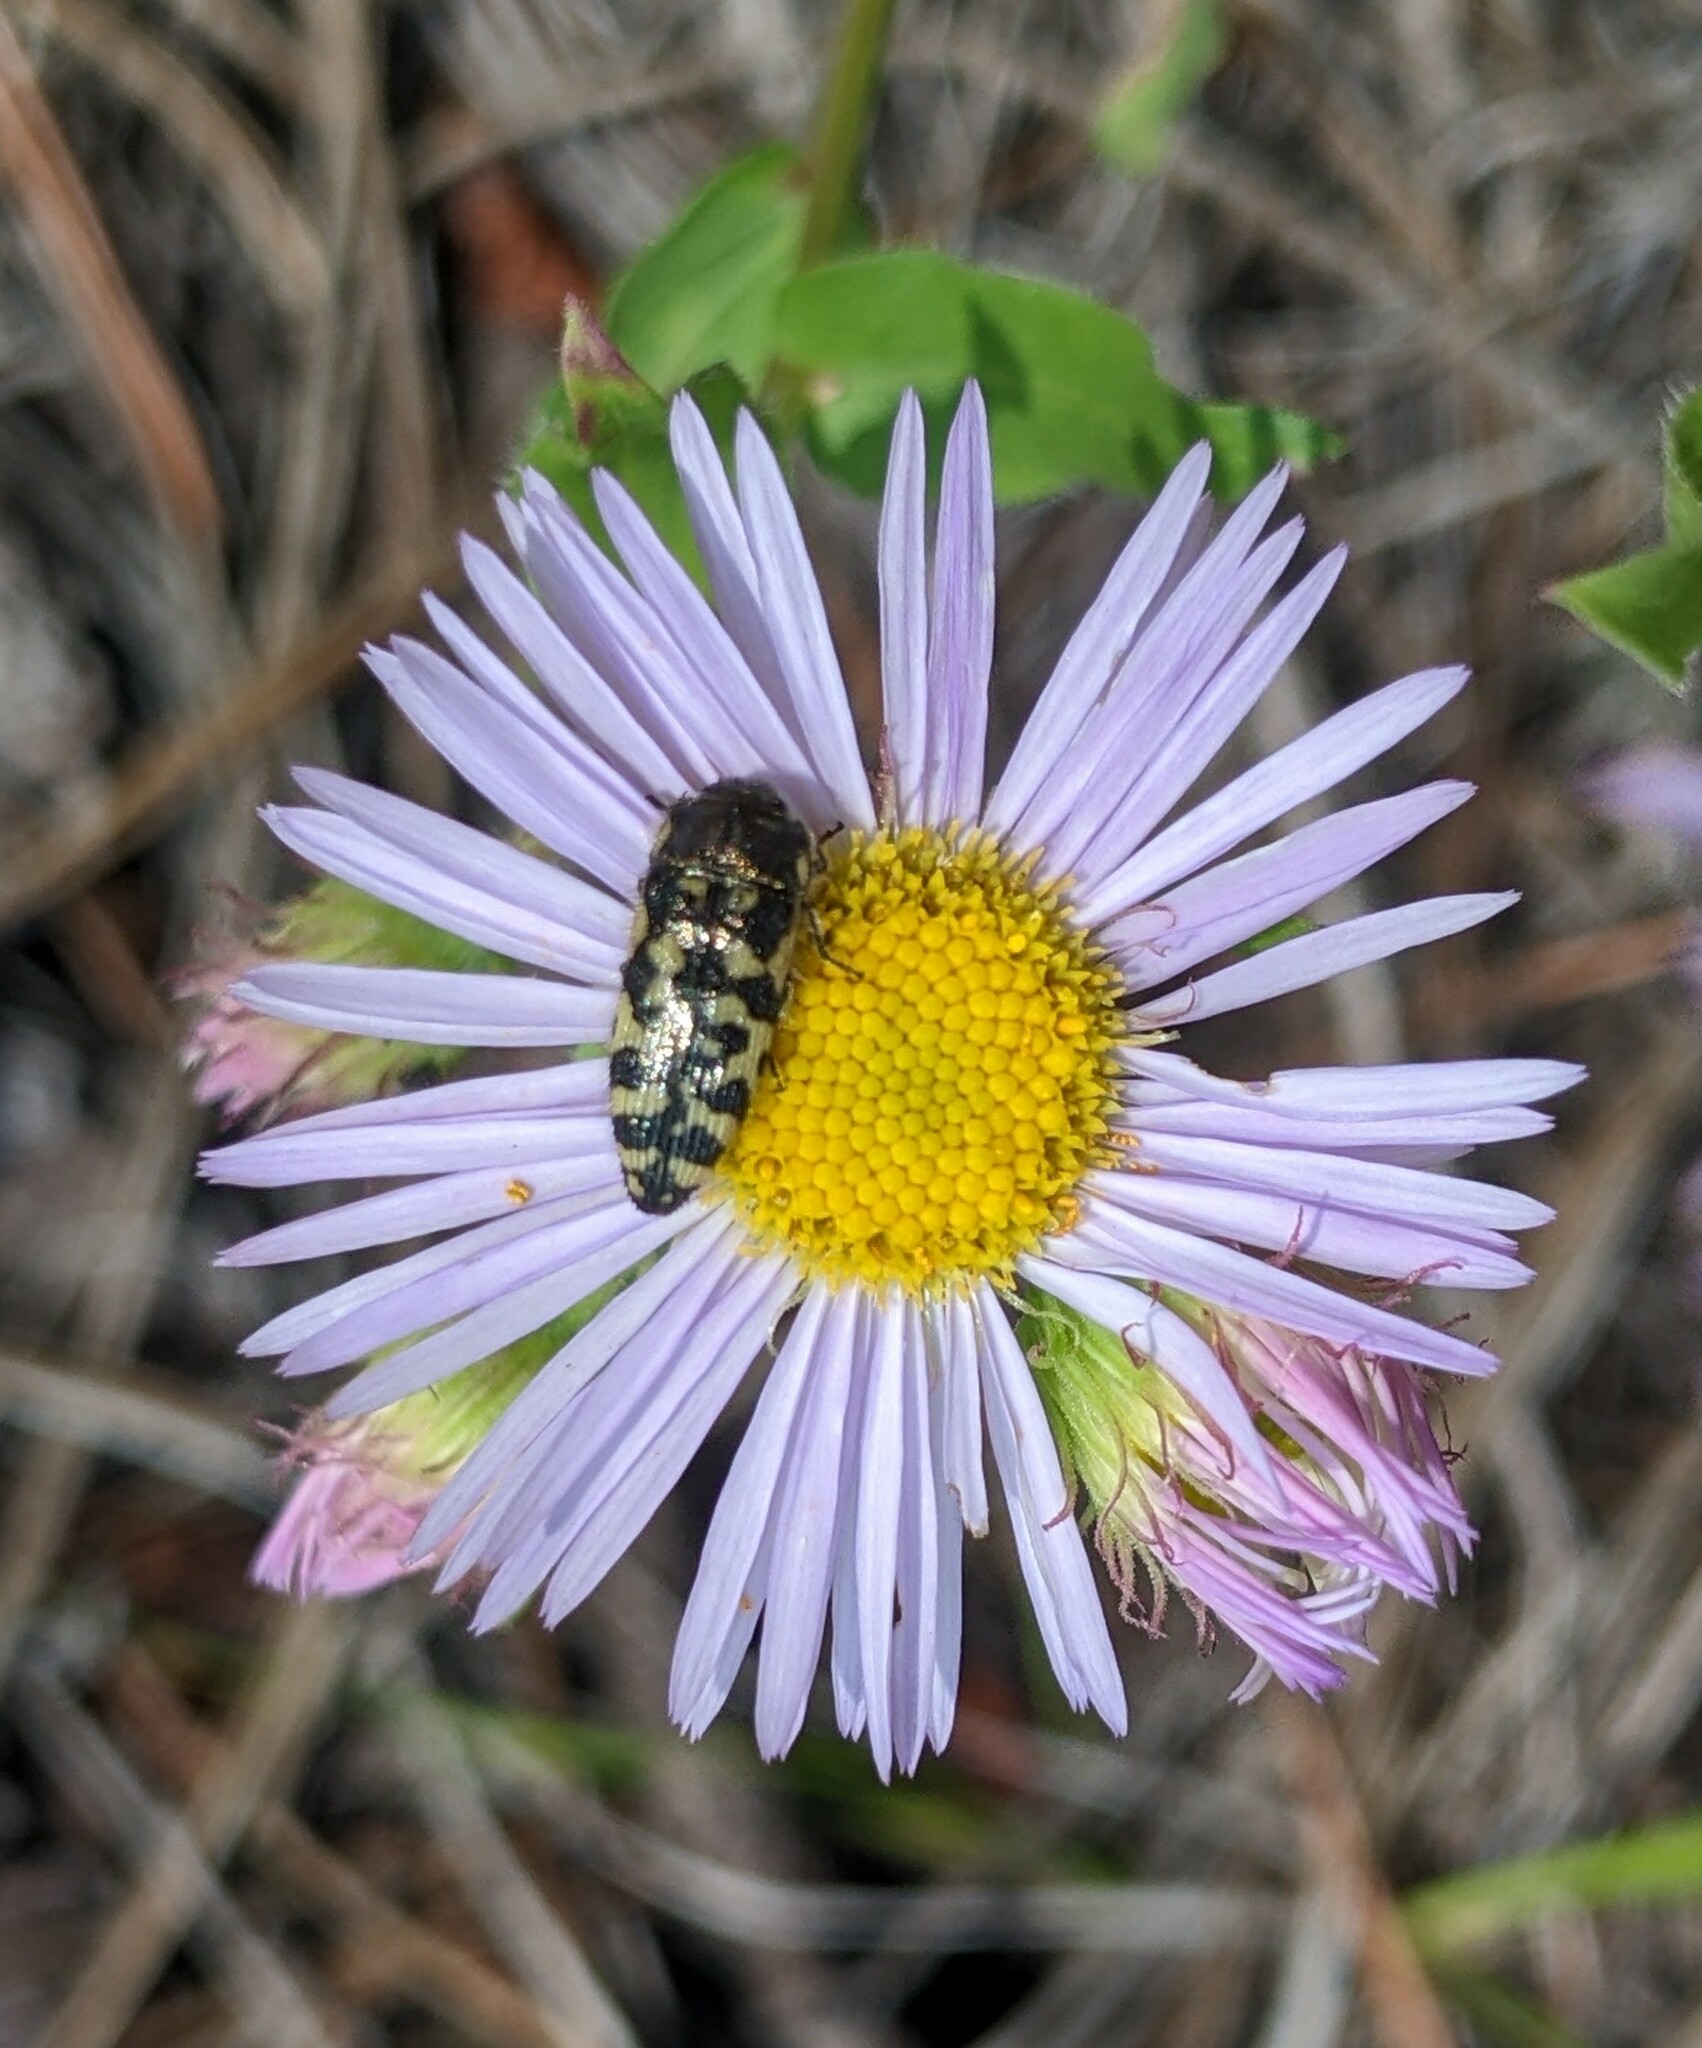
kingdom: Animalia
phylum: Arthropoda
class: Insecta
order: Coleoptera
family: Buprestidae
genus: Acmaeodera
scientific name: Acmaeodera decipiens
